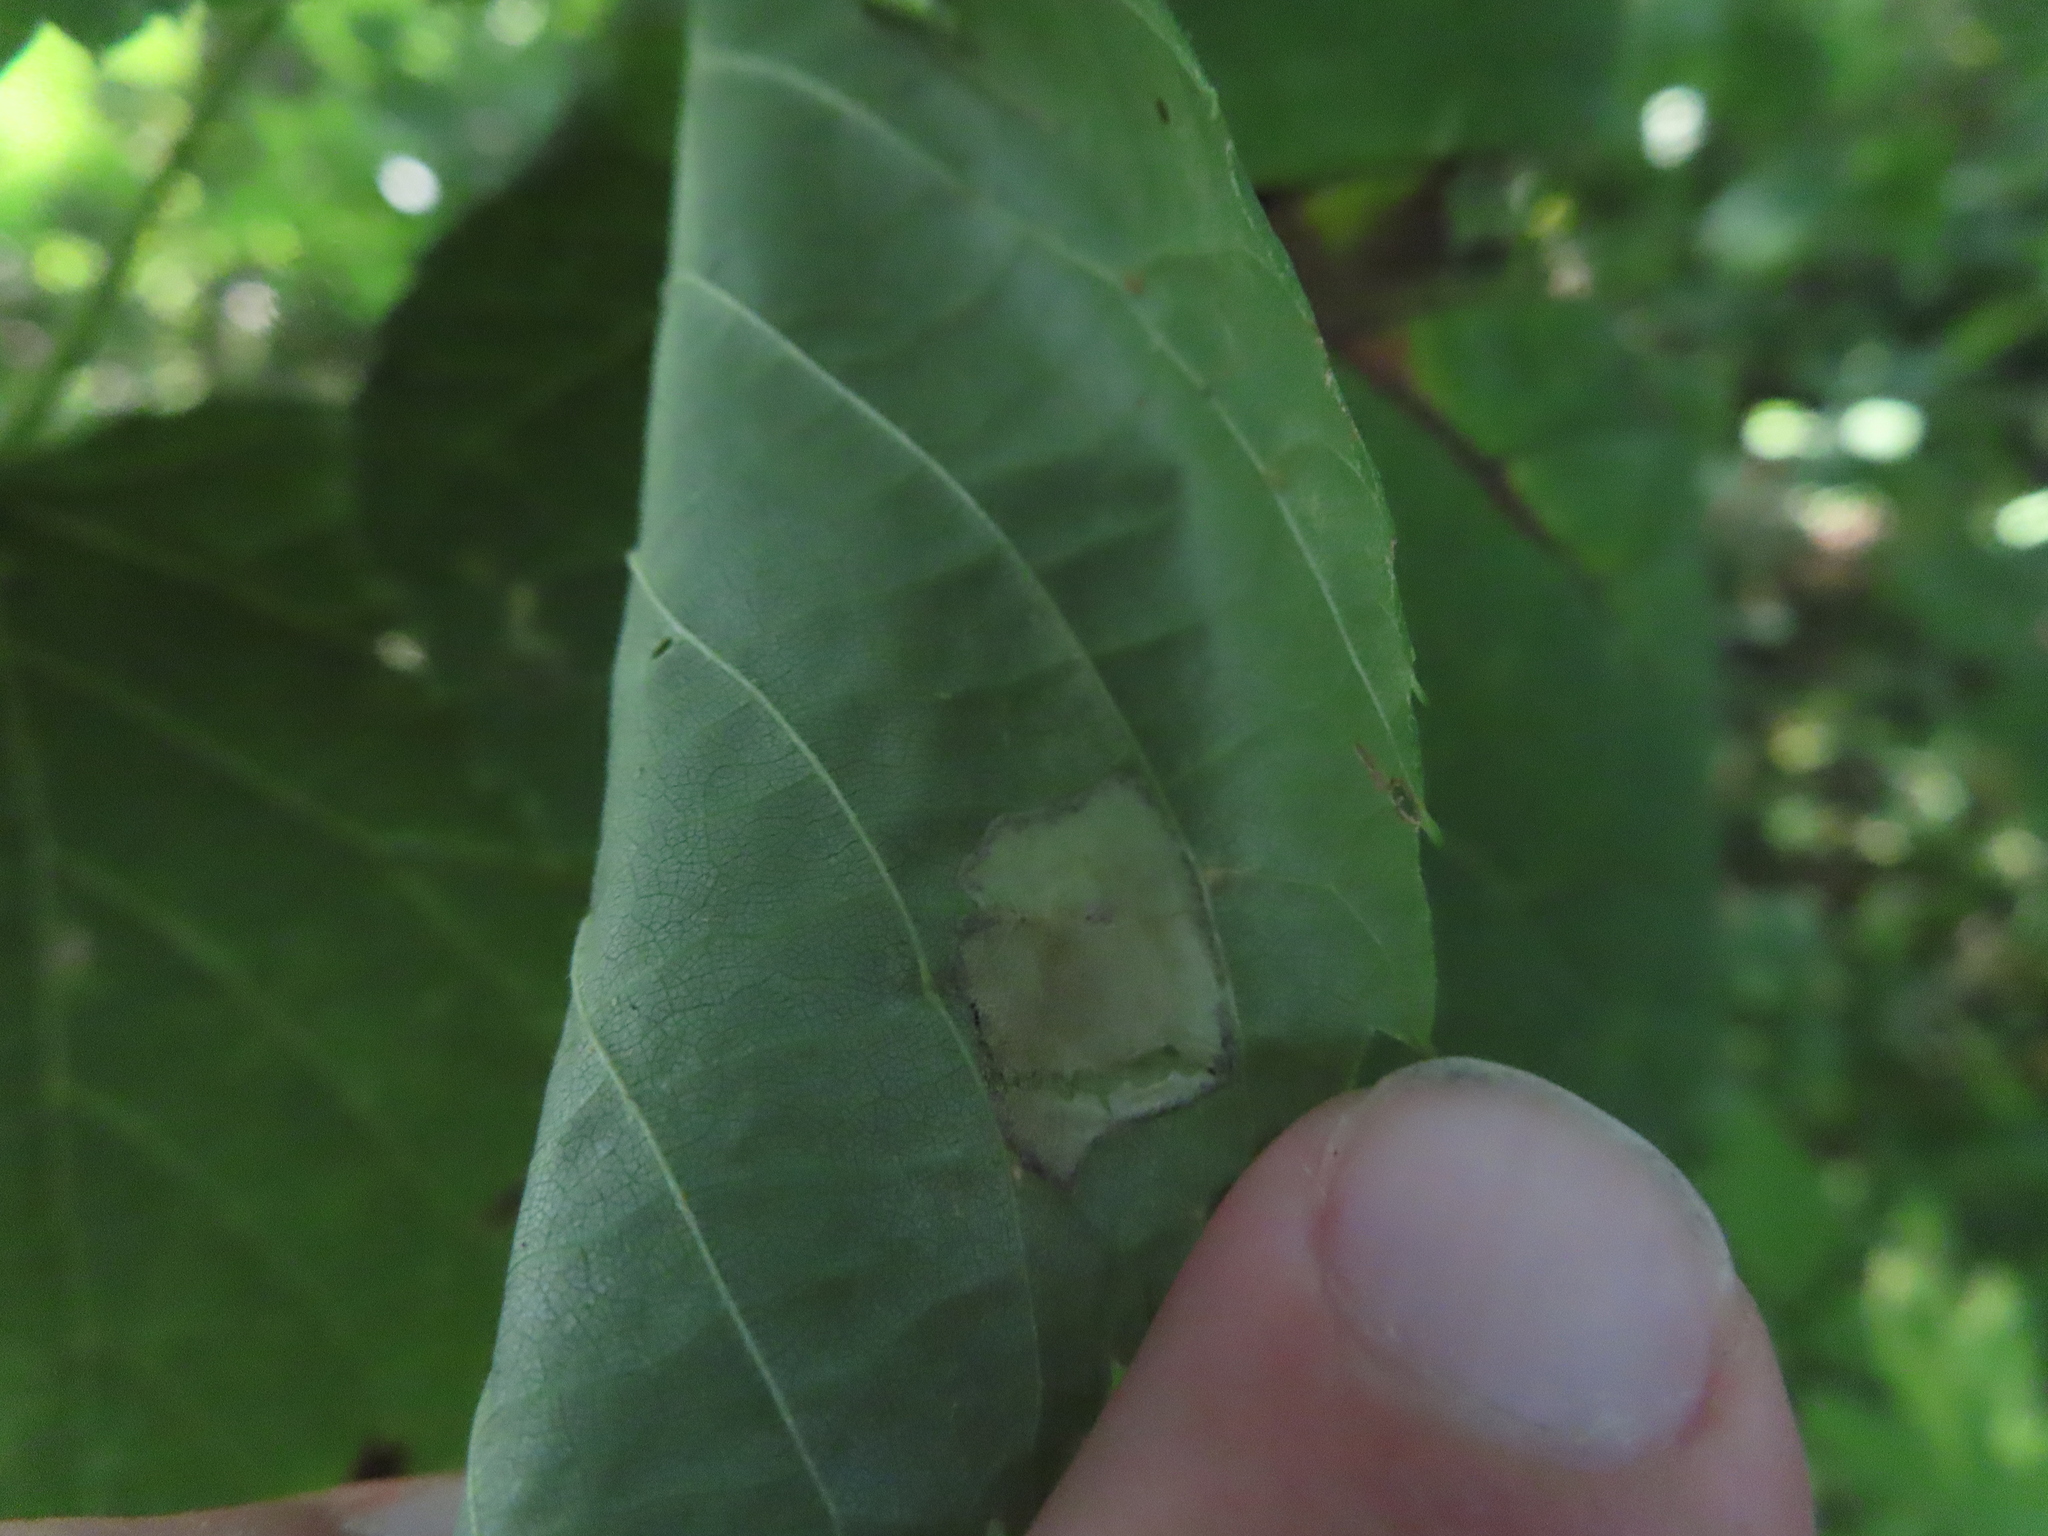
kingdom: Animalia
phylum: Arthropoda
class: Insecta
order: Lepidoptera
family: Gracillariidae
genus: Phyllonorycter
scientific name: Phyllonorycter lucetiella
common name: Basswood miner moth
